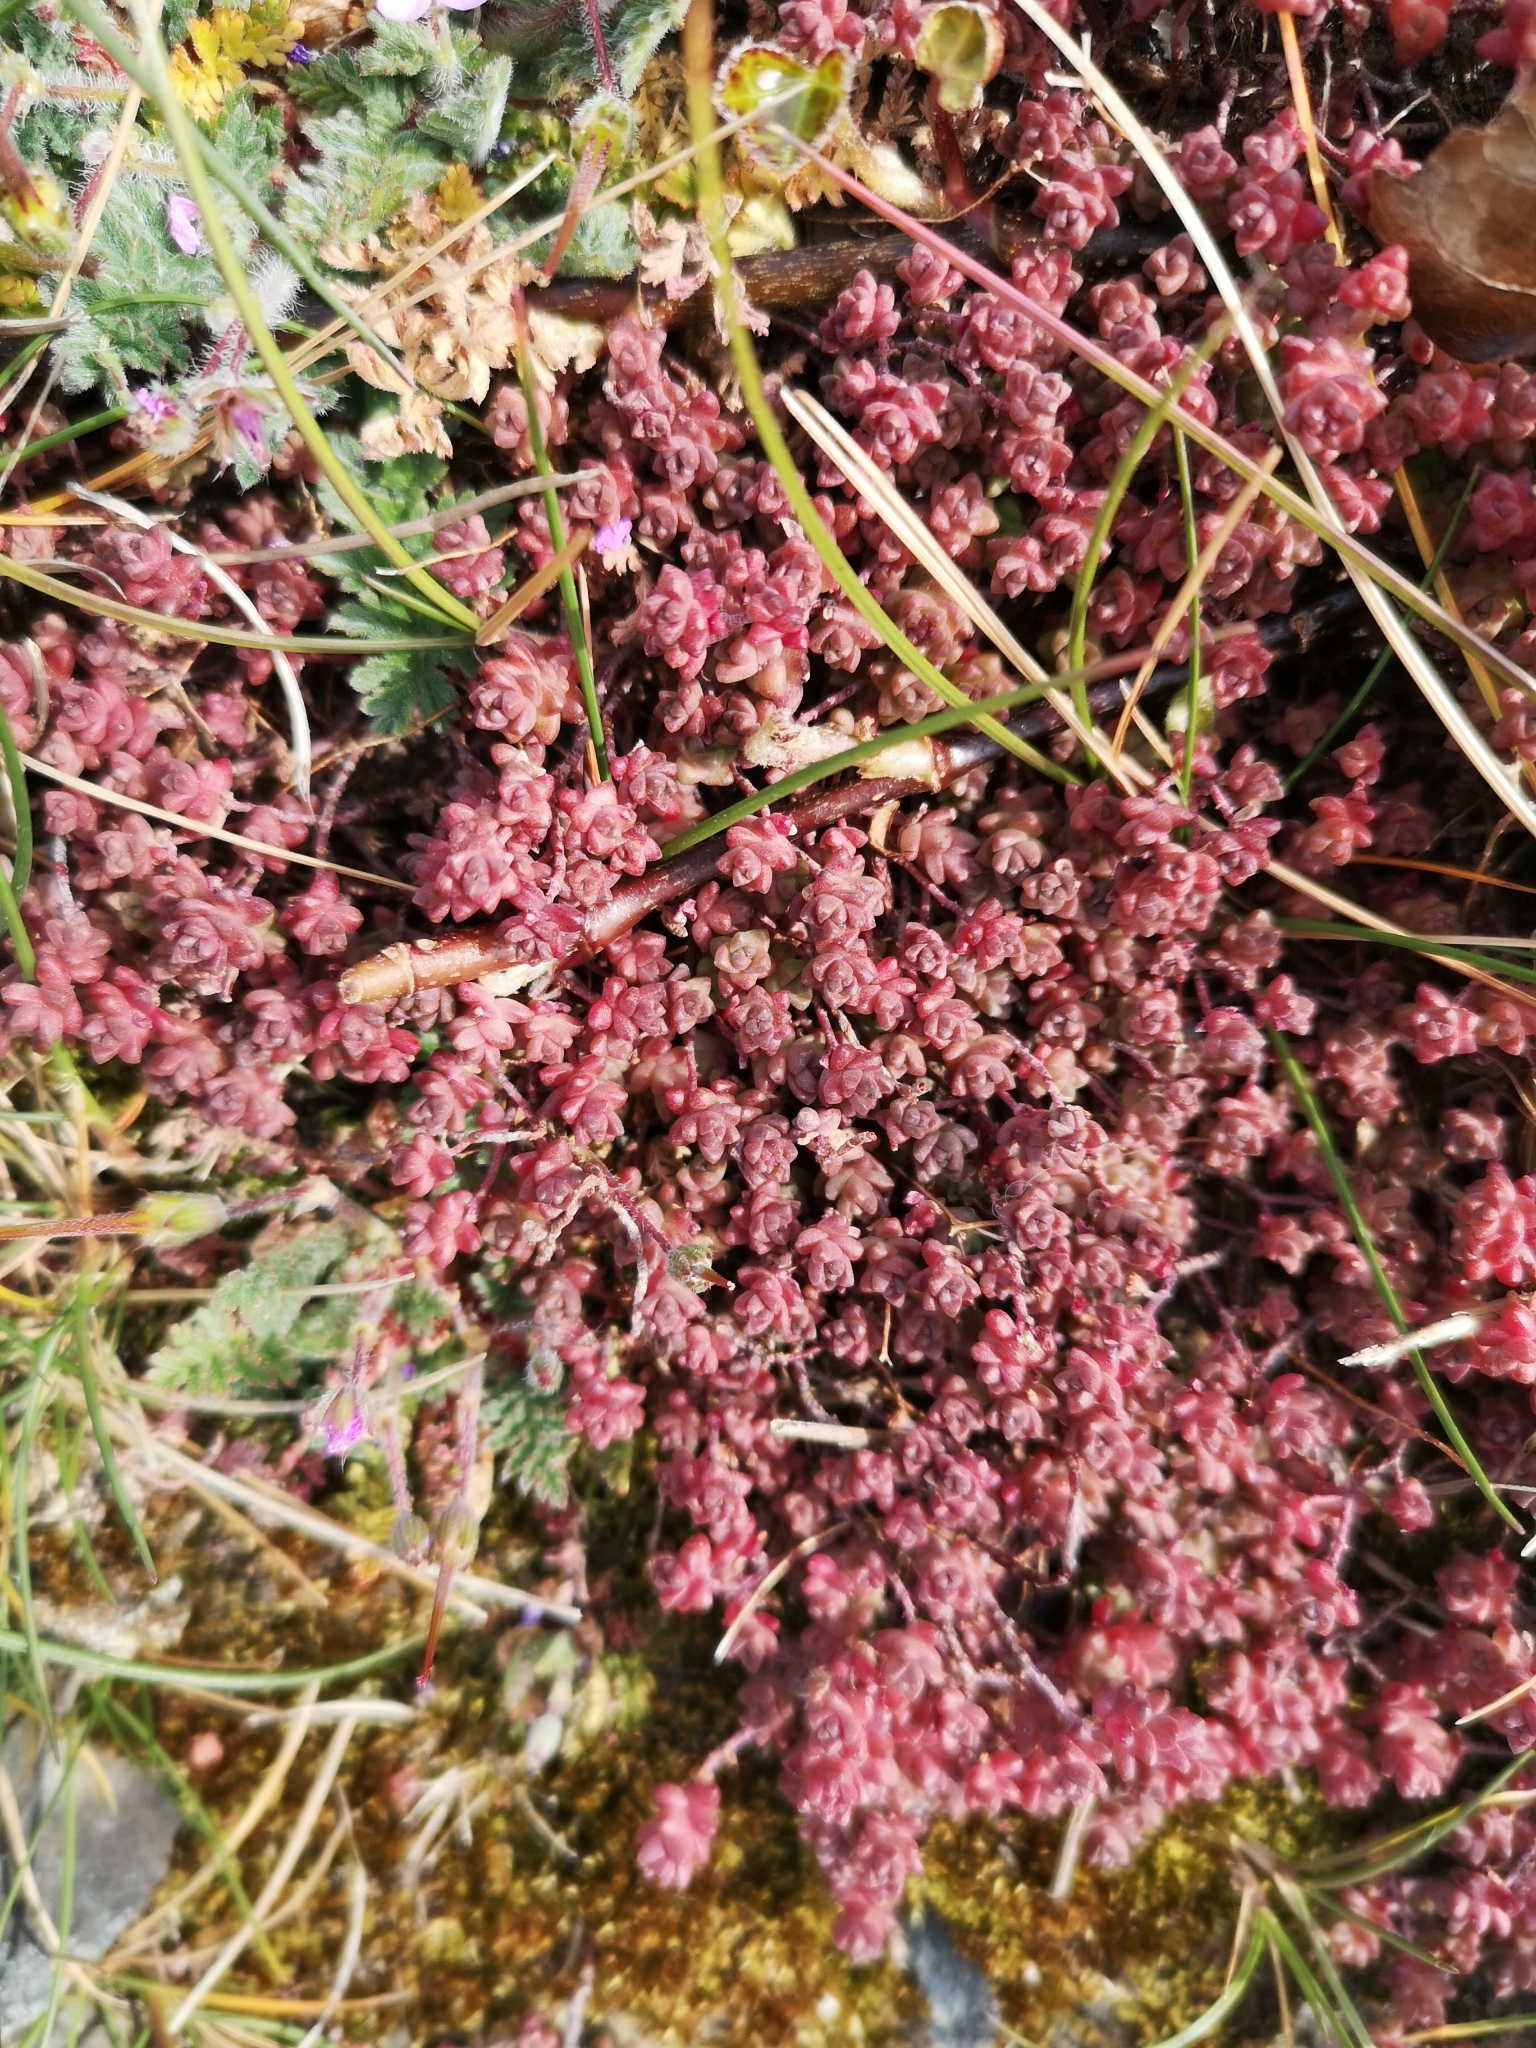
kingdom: Plantae
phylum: Tracheophyta
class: Magnoliopsida
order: Saxifragales
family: Crassulaceae
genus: Sedum
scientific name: Sedum anglicum
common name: English stonecrop
